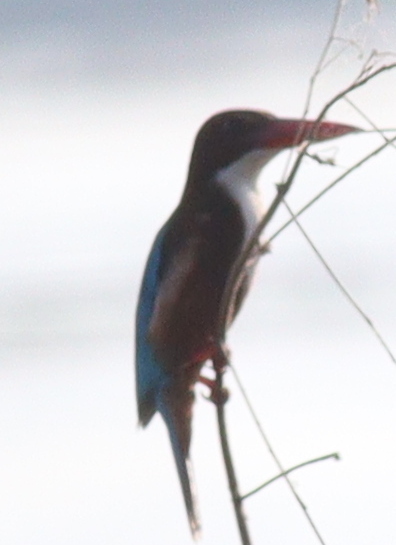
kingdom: Animalia
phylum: Chordata
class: Aves
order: Coraciiformes
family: Alcedinidae
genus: Halcyon
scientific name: Halcyon smyrnensis
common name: White-throated kingfisher
